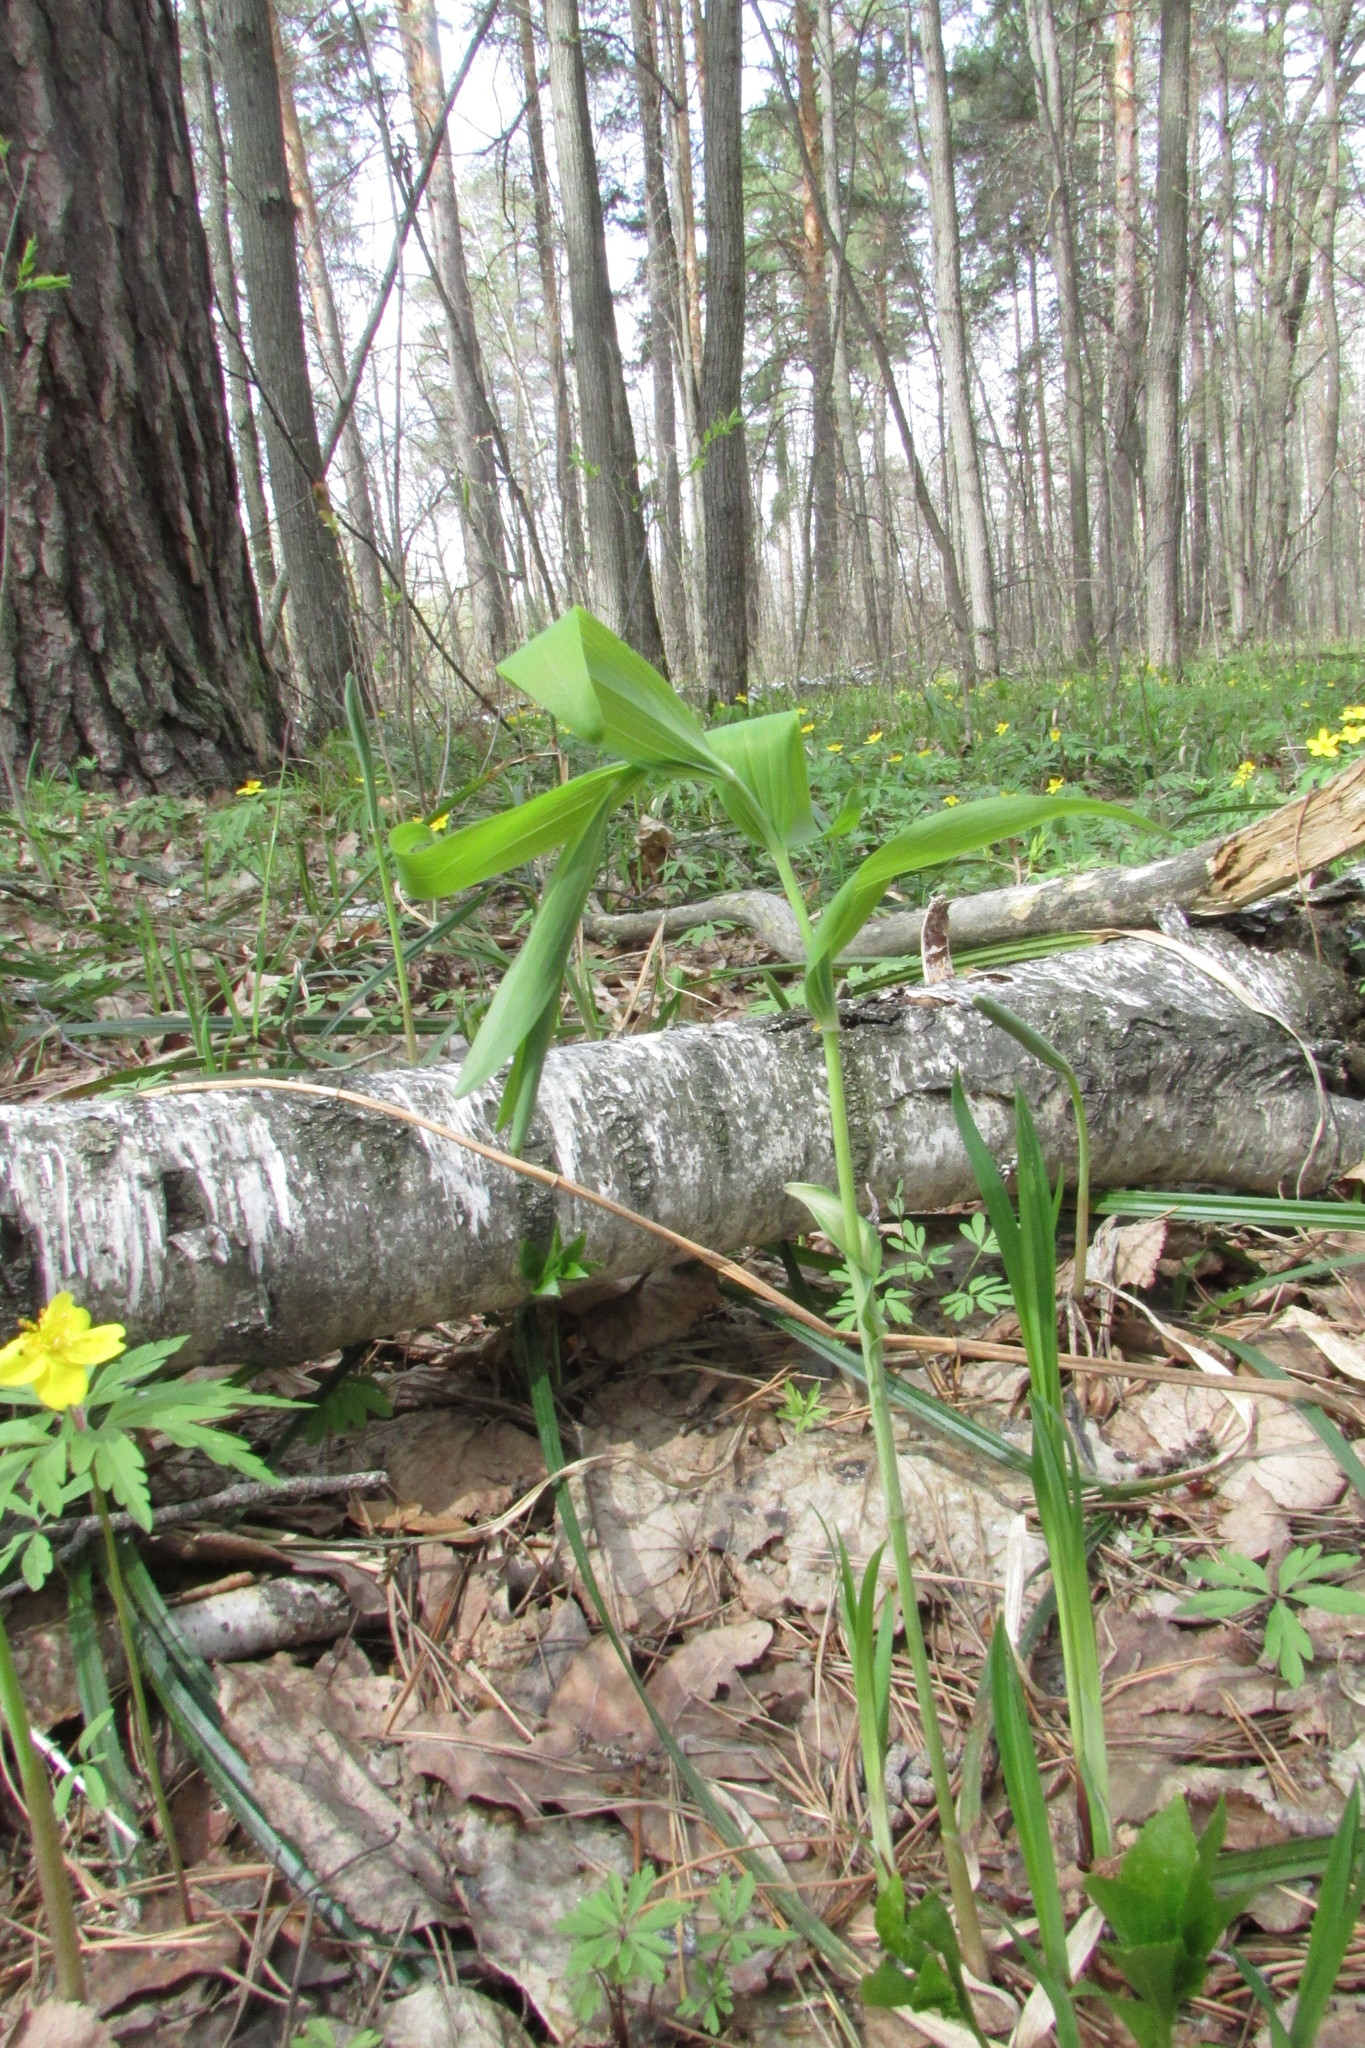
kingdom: Plantae
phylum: Tracheophyta
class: Liliopsida
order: Asparagales
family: Asparagaceae
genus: Polygonatum
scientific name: Polygonatum multiflorum
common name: Solomon's-seal
